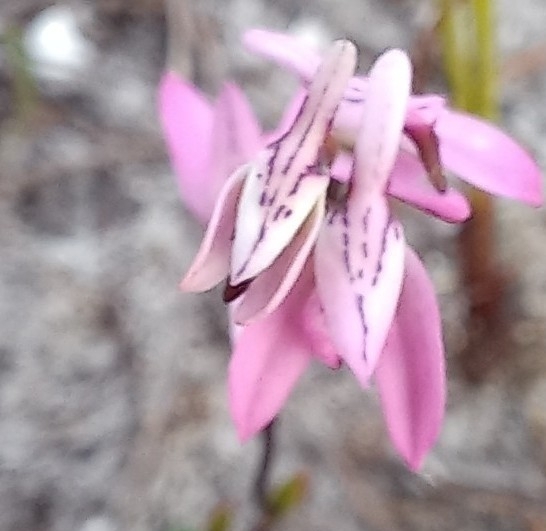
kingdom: Plantae
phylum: Tracheophyta
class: Liliopsida
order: Asparagales
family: Orchidaceae
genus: Disa
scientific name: Disa obliqua
